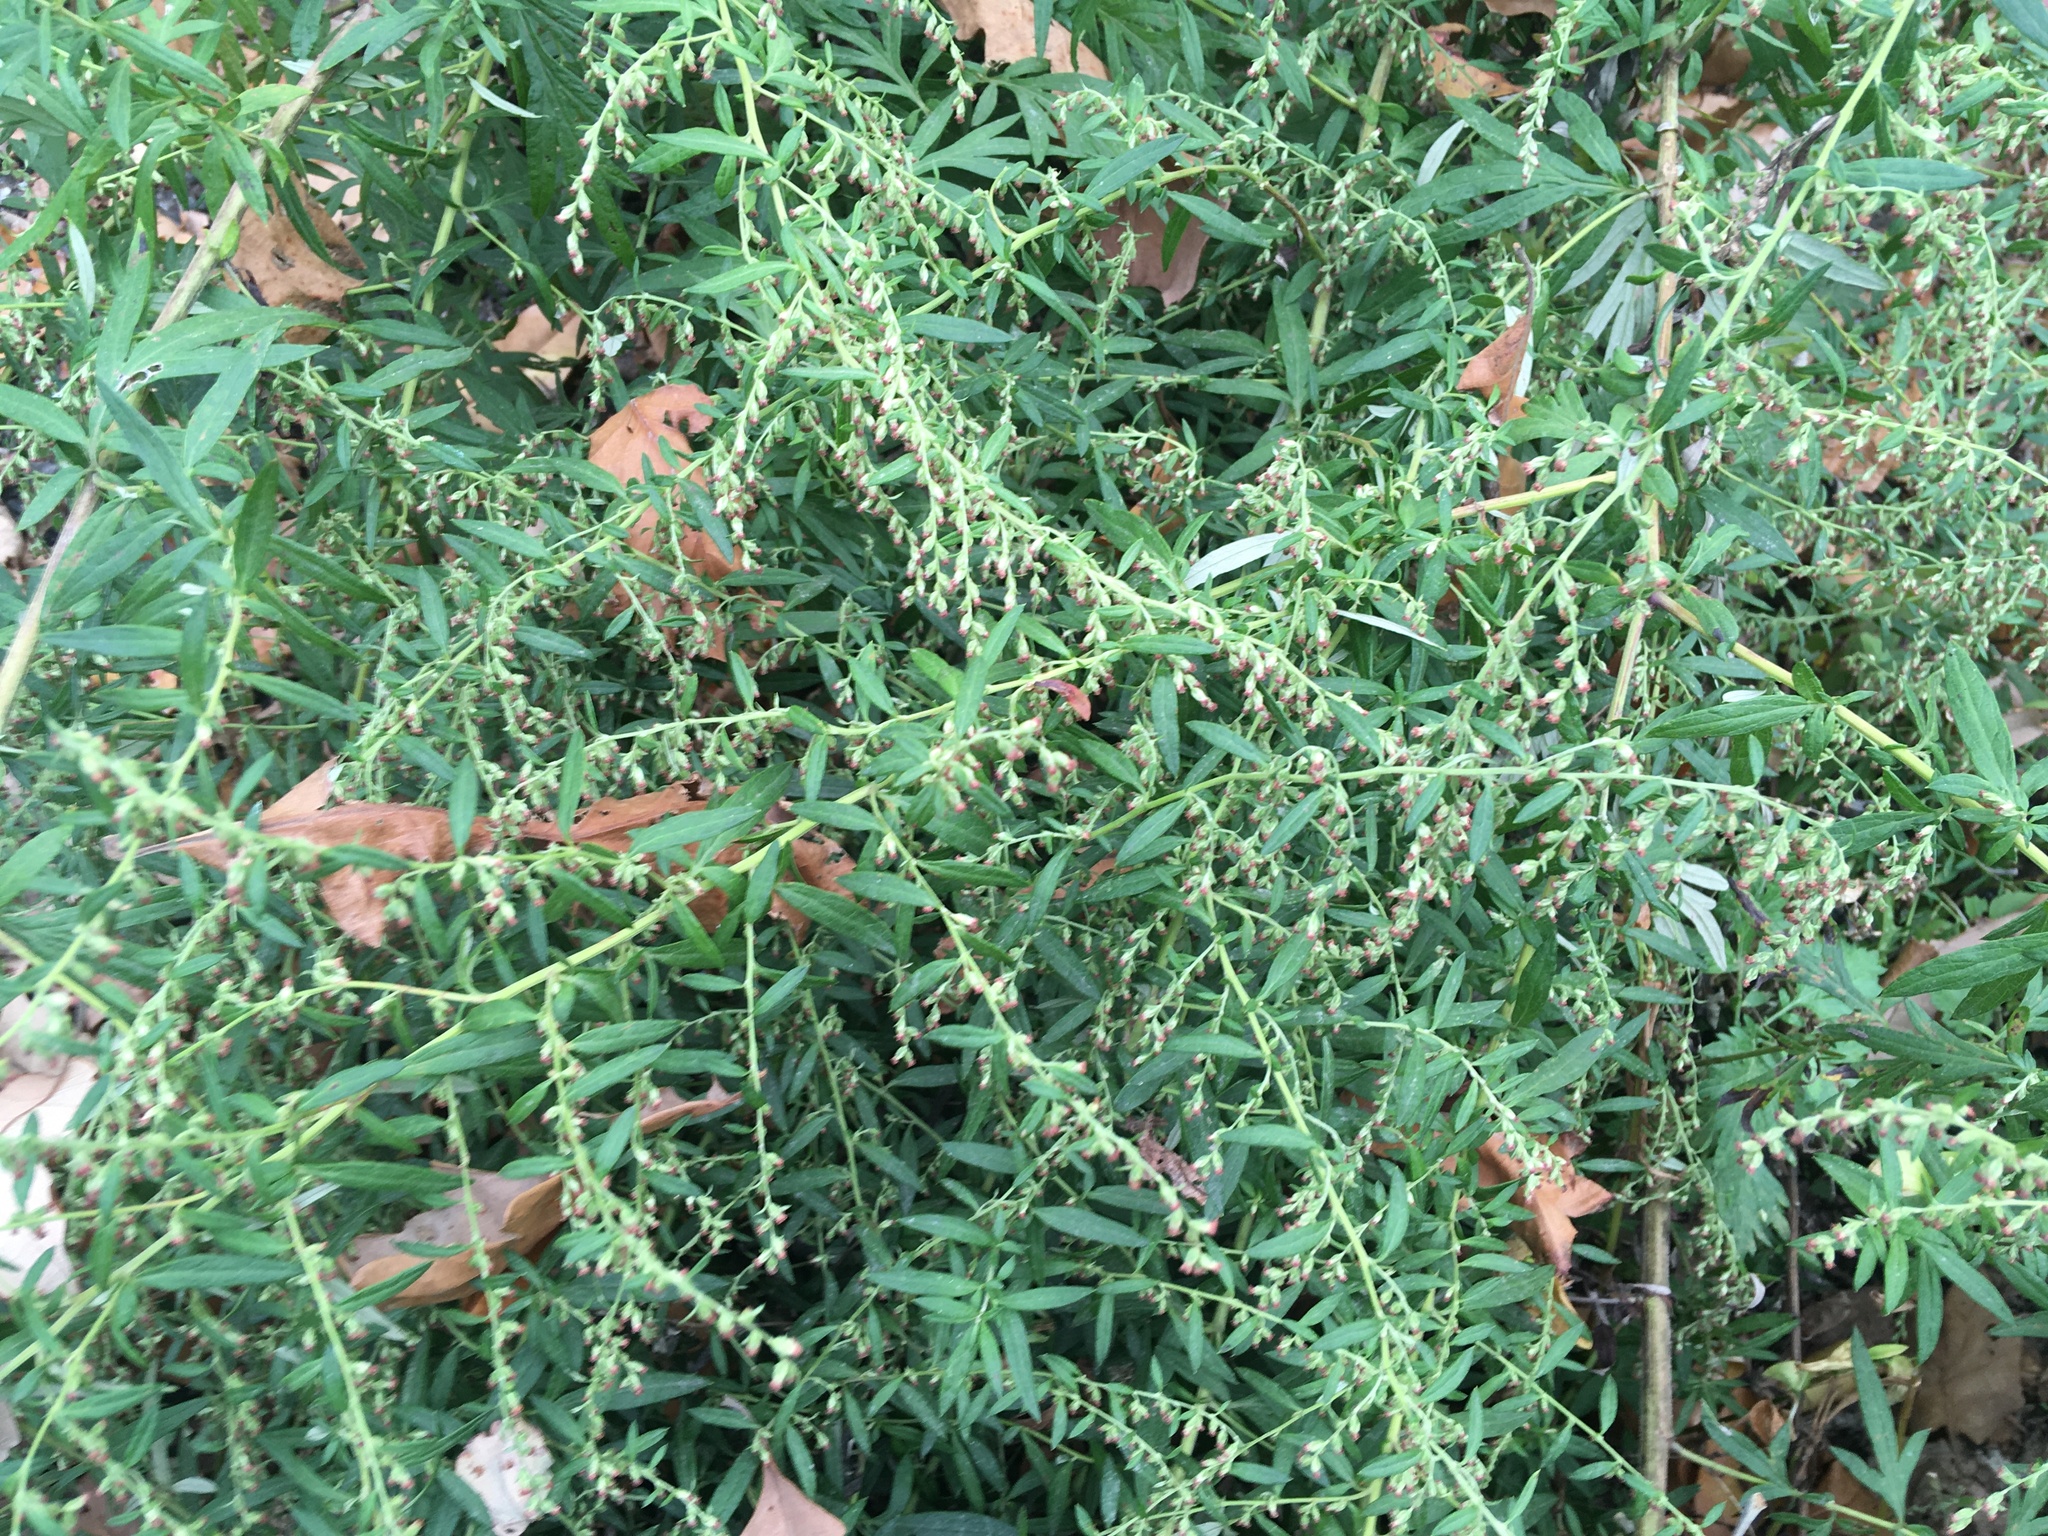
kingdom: Plantae
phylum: Tracheophyta
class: Magnoliopsida
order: Asterales
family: Asteraceae
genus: Artemisia
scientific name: Artemisia vulgaris
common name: Mugwort
